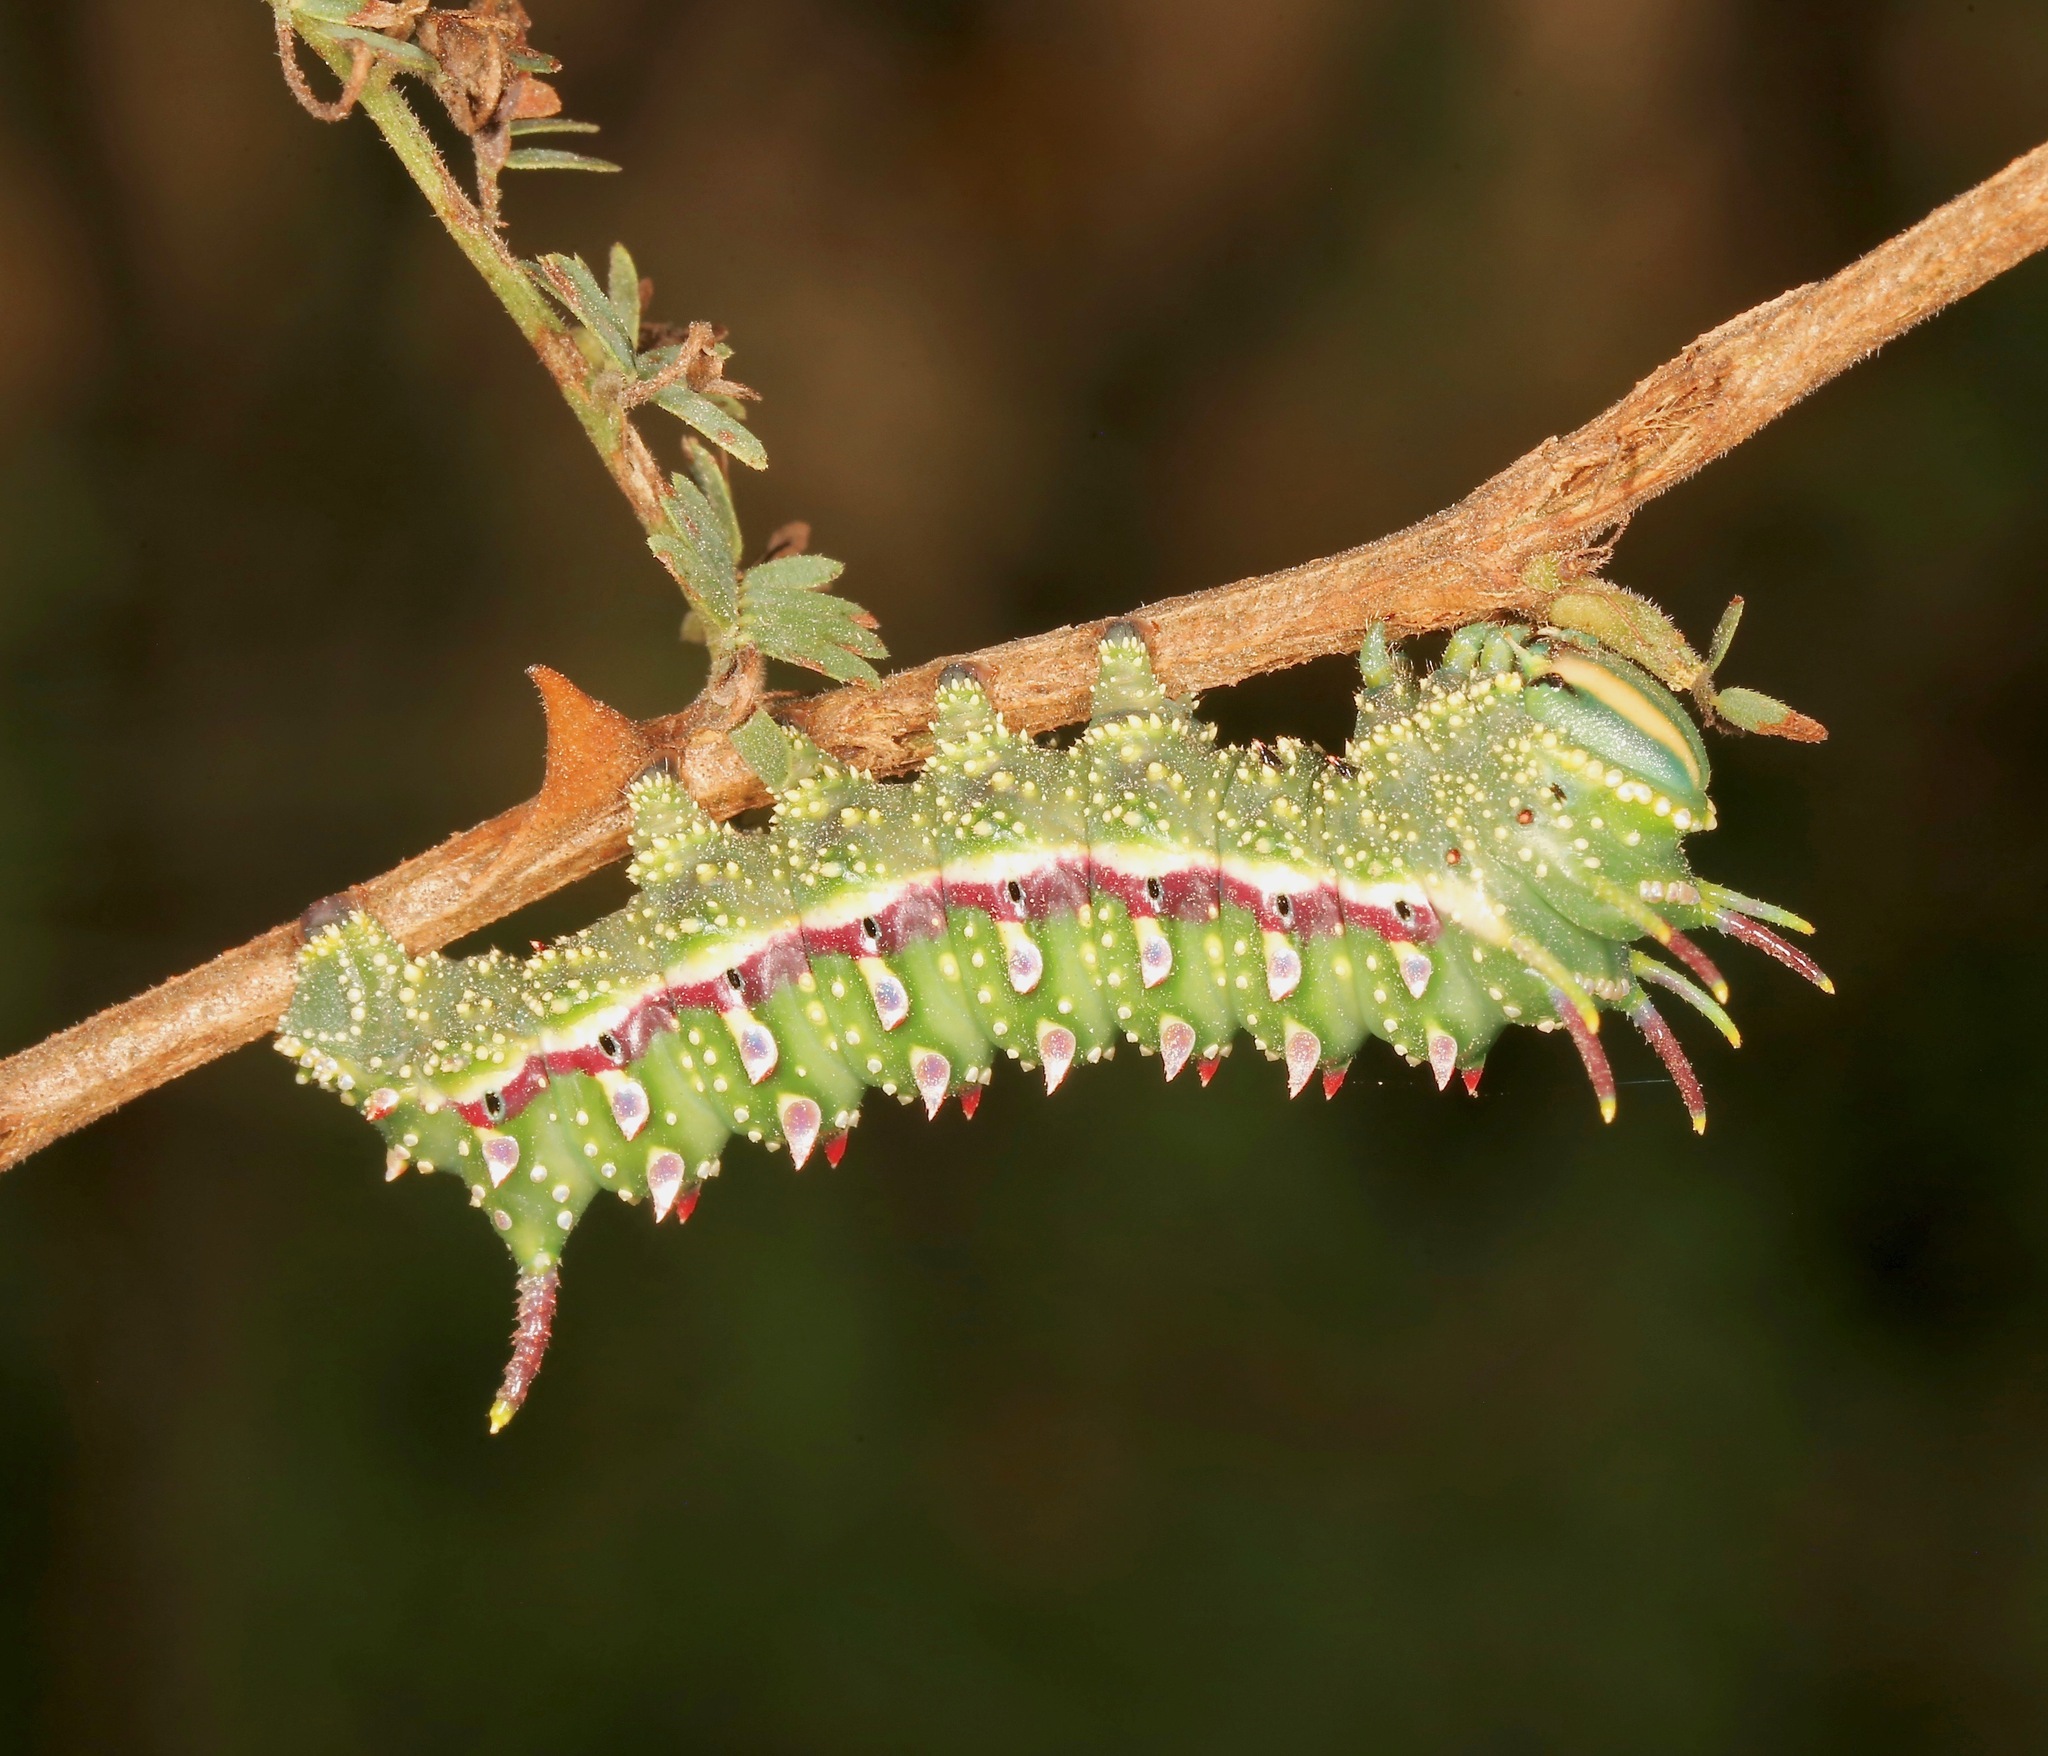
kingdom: Animalia
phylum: Arthropoda
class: Insecta
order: Lepidoptera
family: Saturniidae
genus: Syssphinx
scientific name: Syssphinx hubbardi
